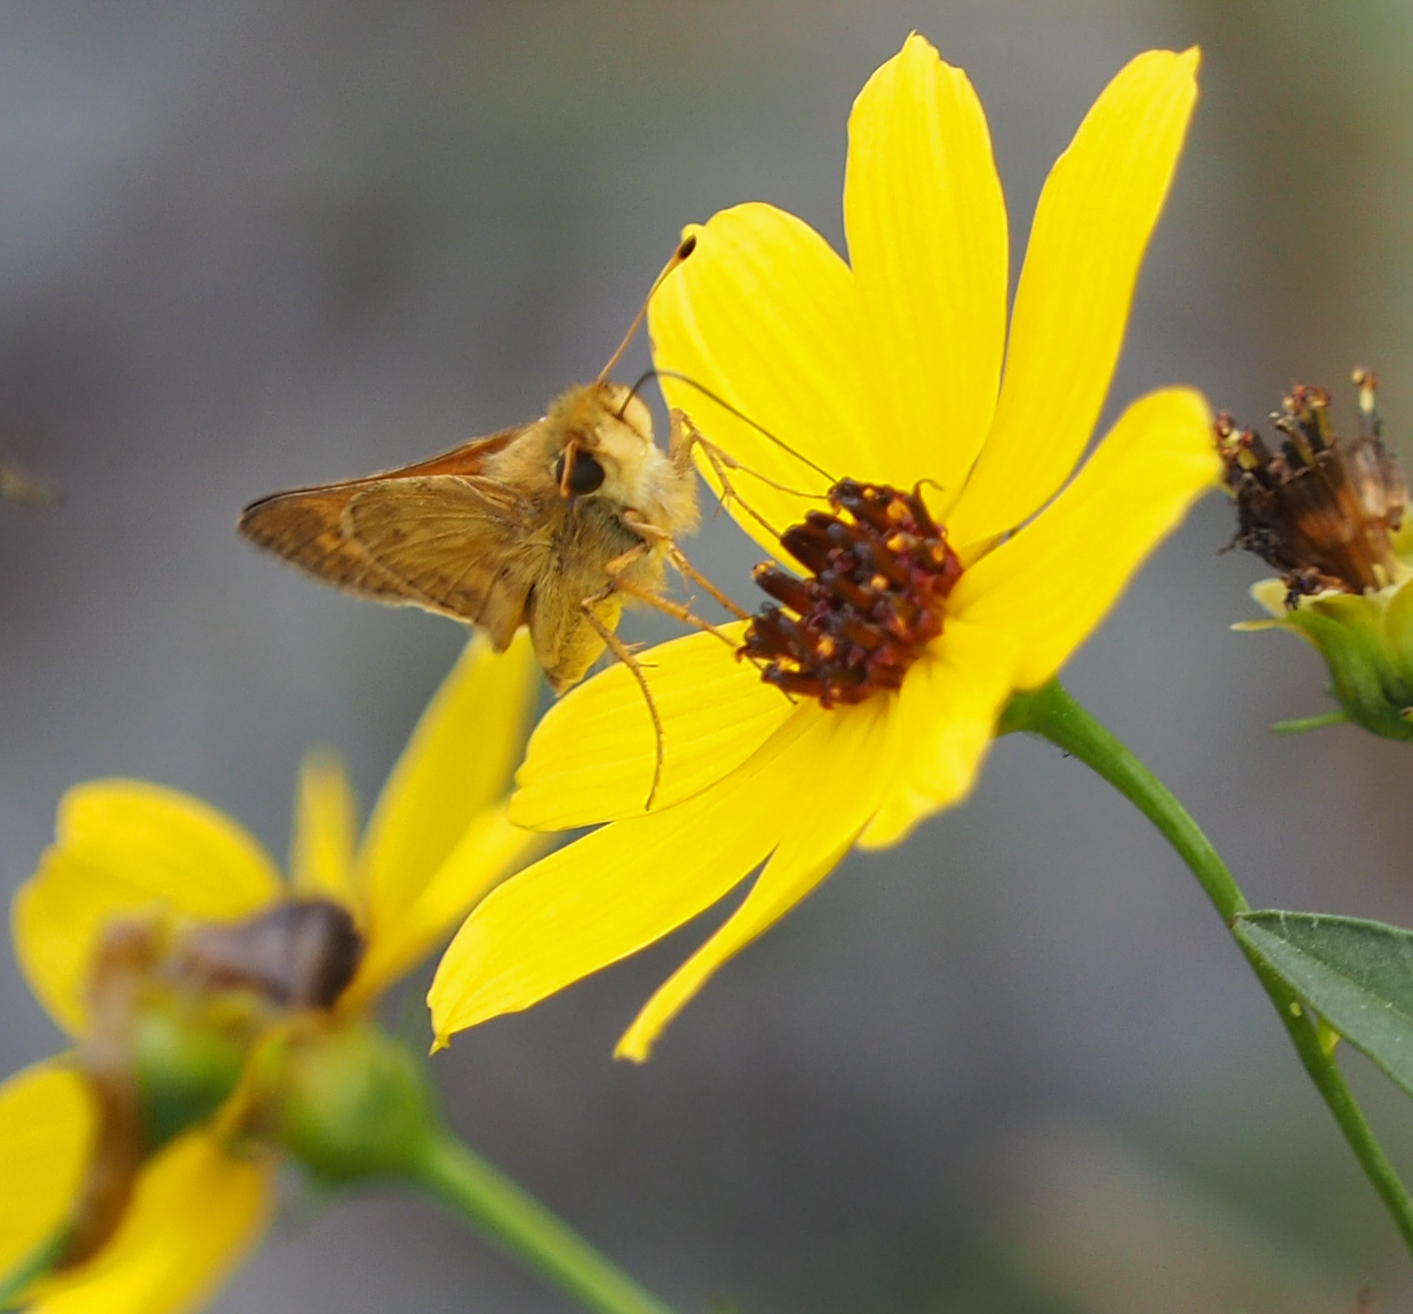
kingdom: Animalia
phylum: Arthropoda
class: Insecta
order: Lepidoptera
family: Hesperiidae
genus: Atalopedes
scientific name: Atalopedes
